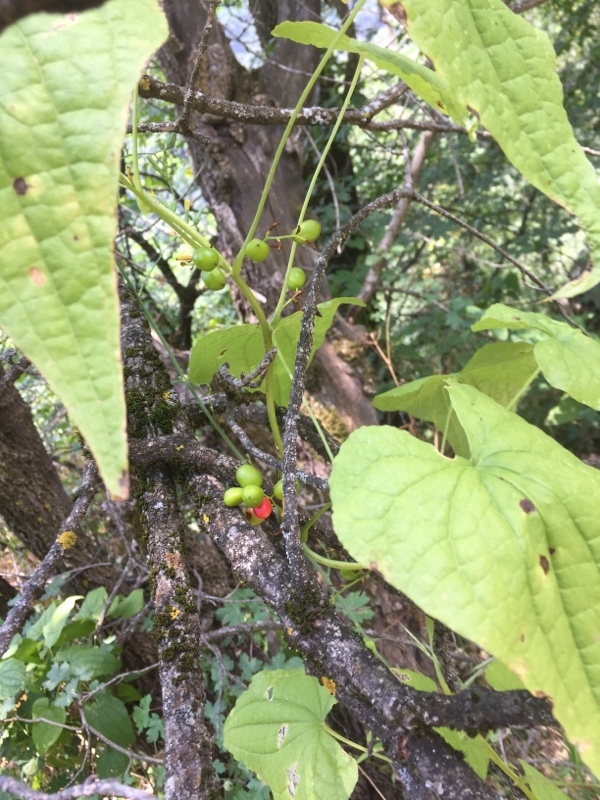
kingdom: Plantae
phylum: Tracheophyta
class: Liliopsida
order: Dioscoreales
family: Dioscoreaceae
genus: Dioscorea
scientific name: Dioscorea communis
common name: Black-bindweed
